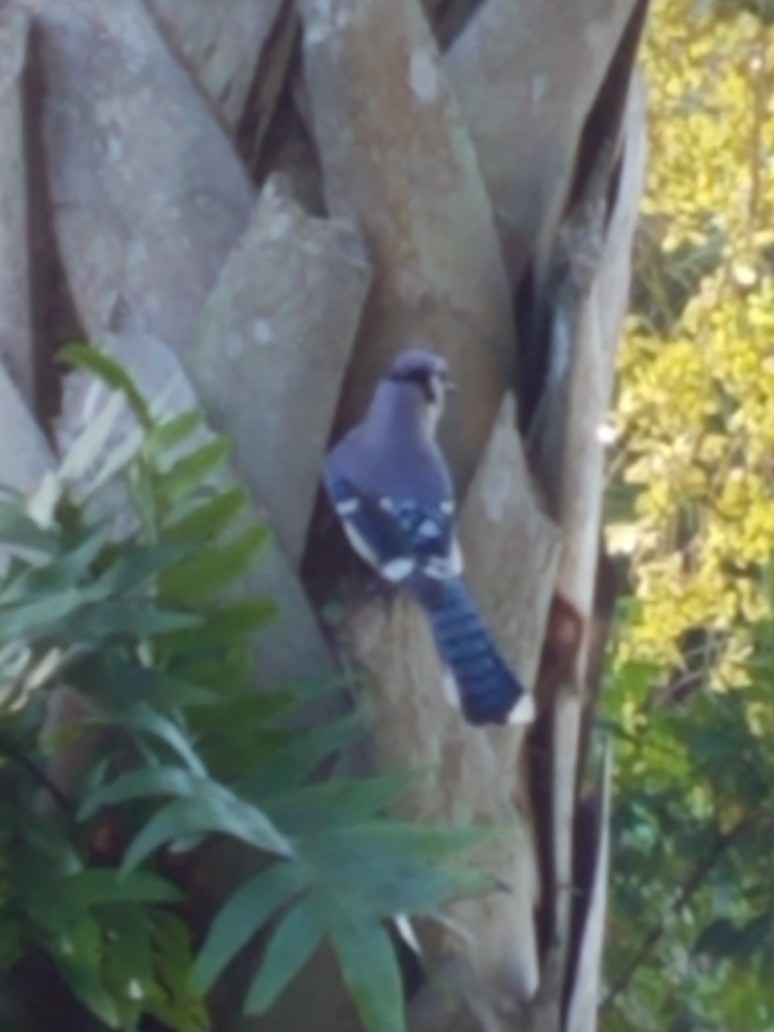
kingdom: Animalia
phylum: Chordata
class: Aves
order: Passeriformes
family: Corvidae
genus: Cyanocitta
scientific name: Cyanocitta cristata
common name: Blue jay
